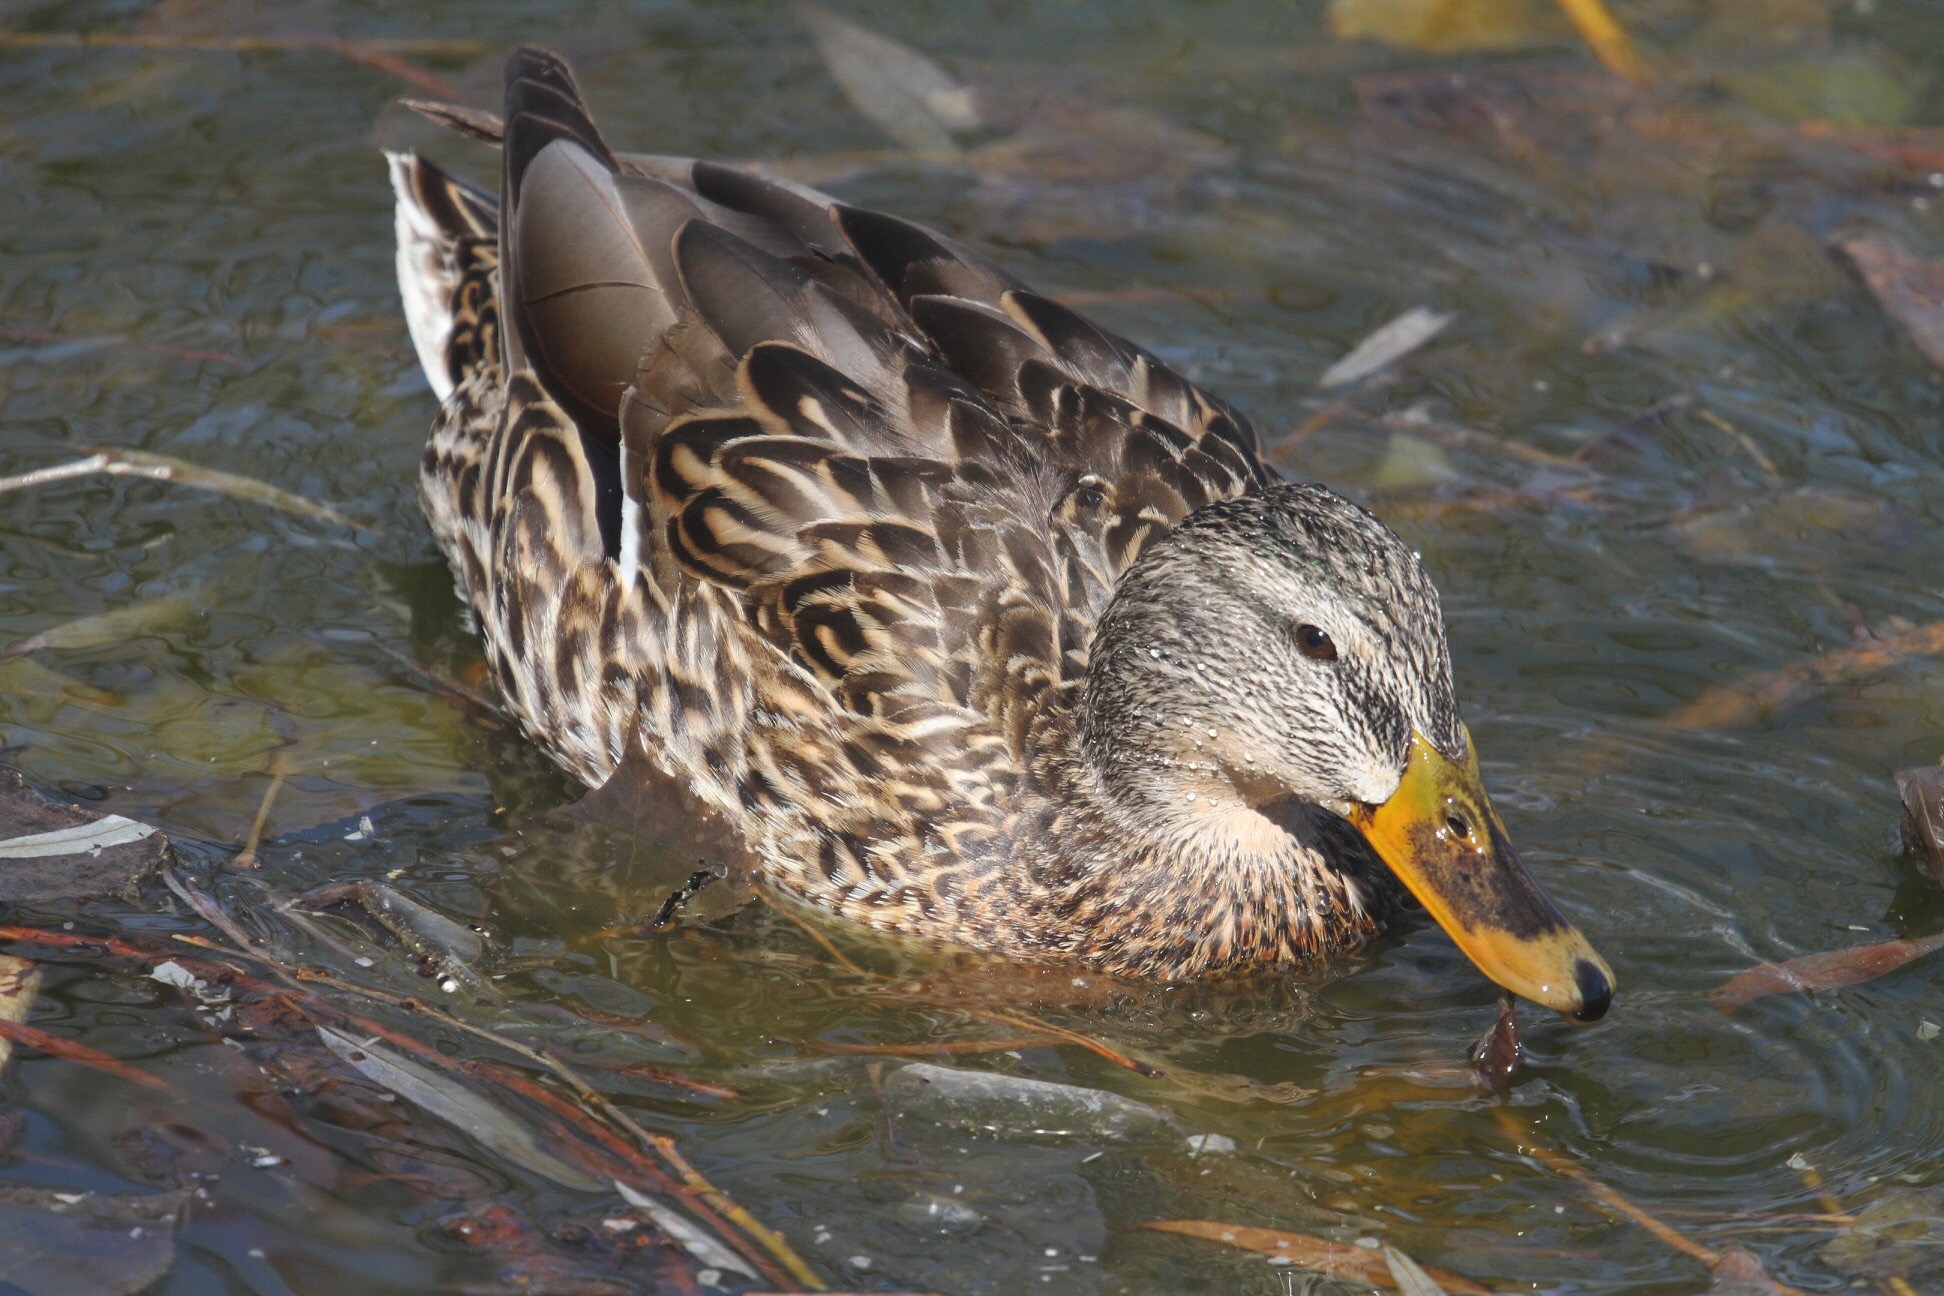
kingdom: Animalia
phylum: Chordata
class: Aves
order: Anseriformes
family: Anatidae
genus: Anas
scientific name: Anas platyrhynchos
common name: Mallard
